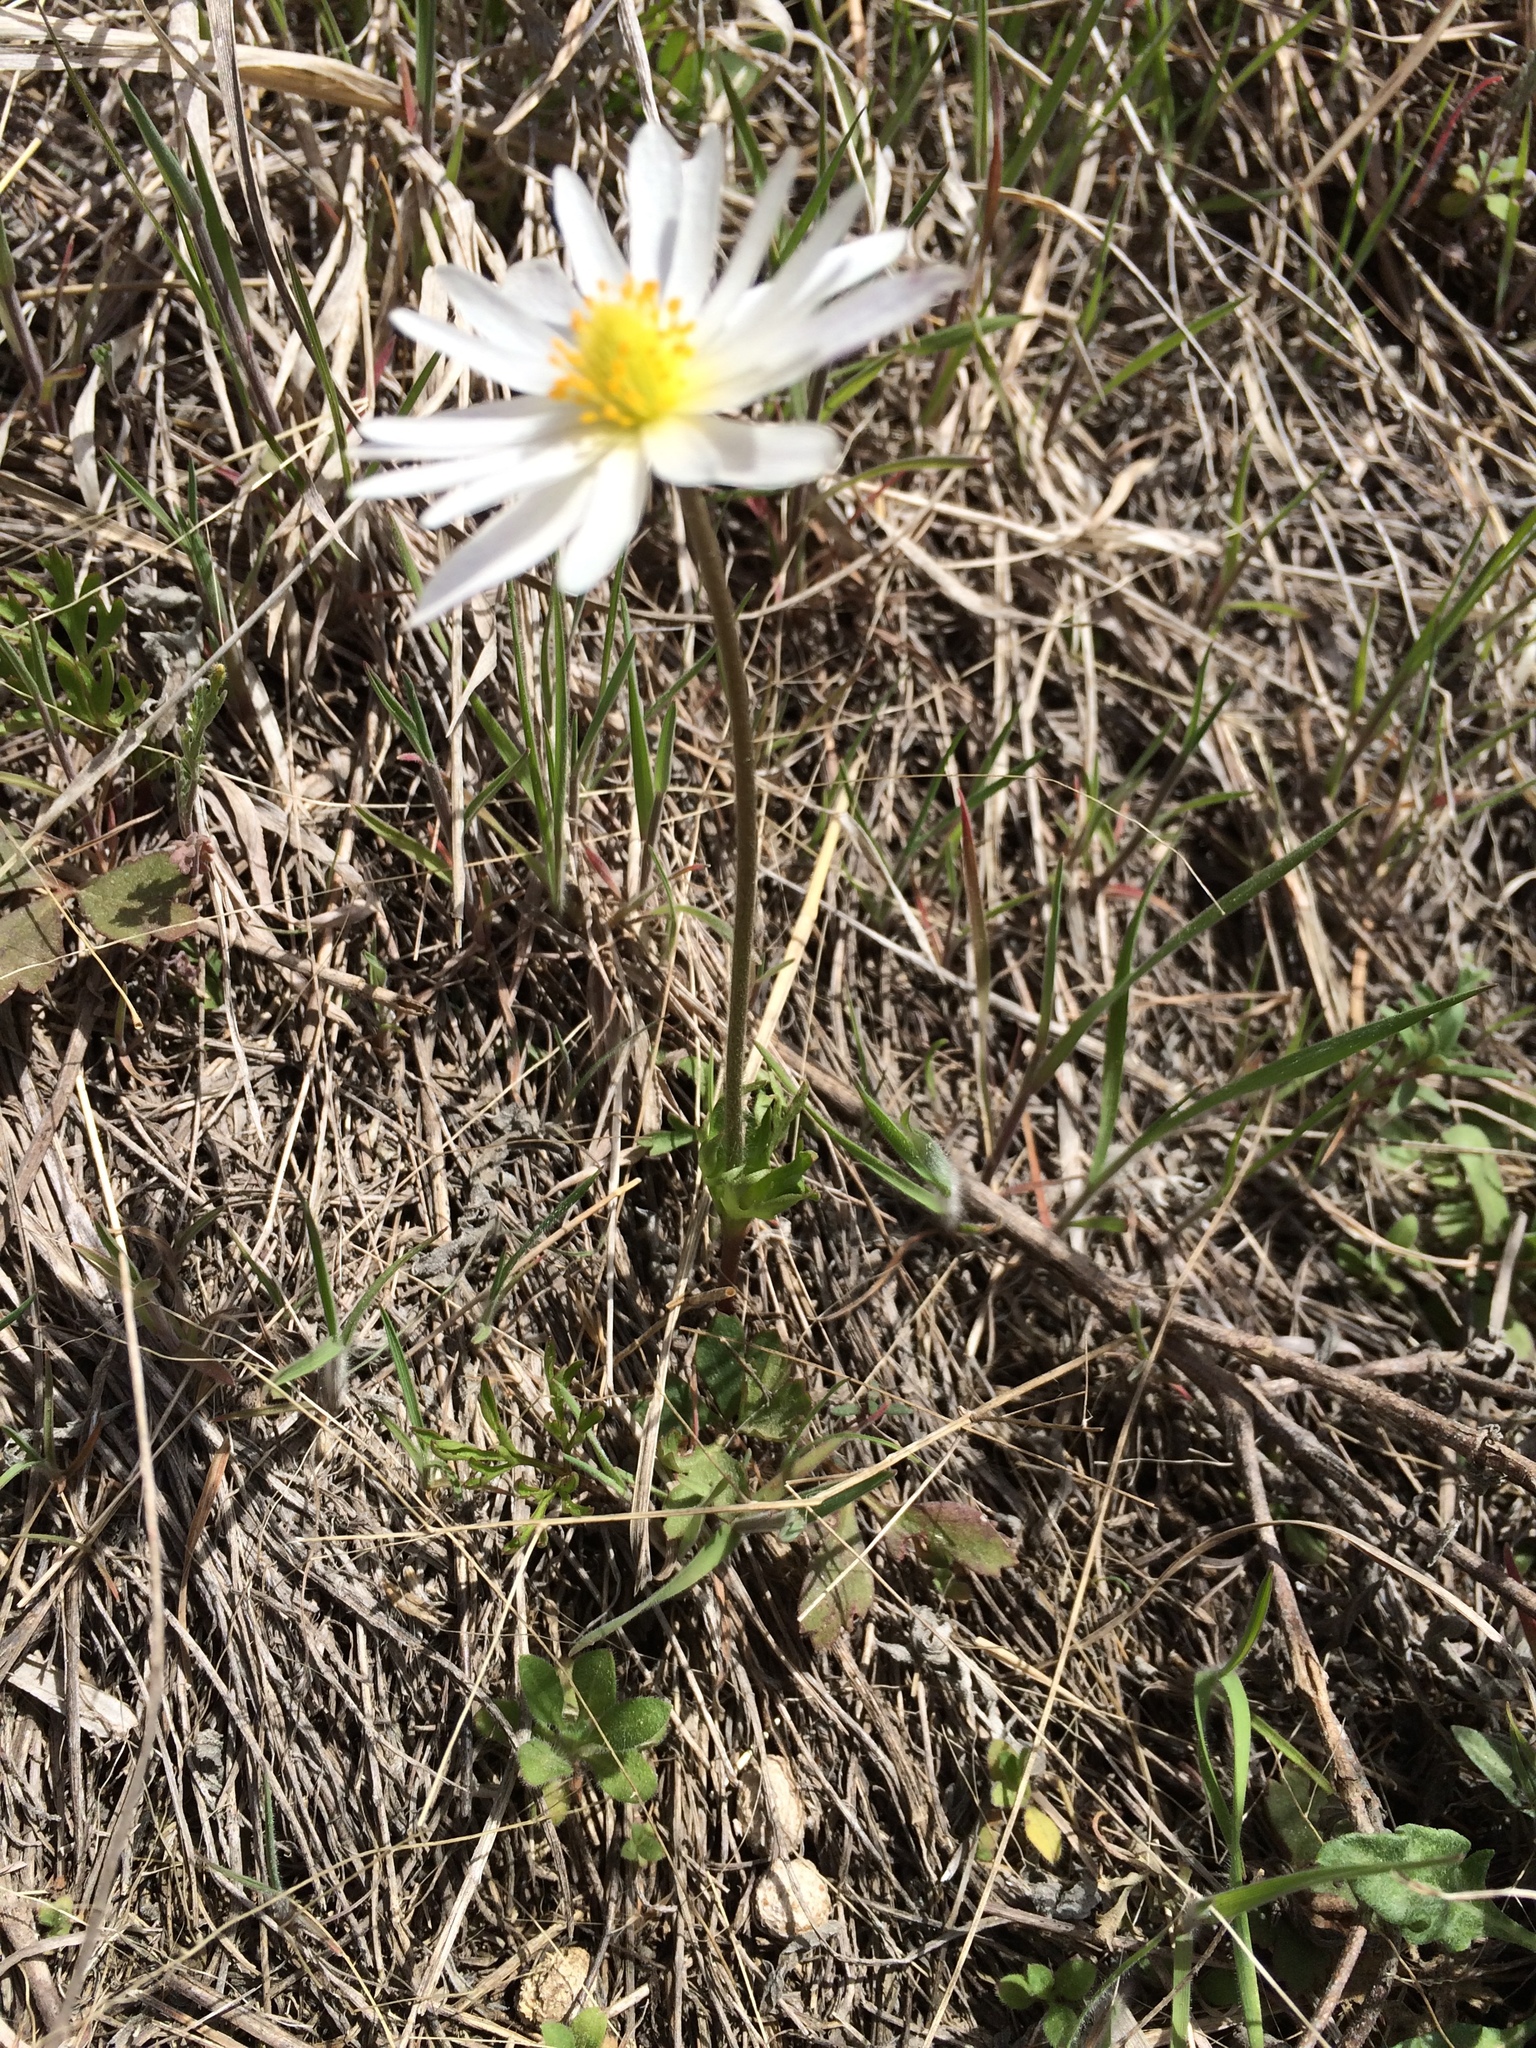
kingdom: Plantae
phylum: Tracheophyta
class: Magnoliopsida
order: Ranunculales
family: Ranunculaceae
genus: Anemone
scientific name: Anemone caroliniana
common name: Carolina anemone
